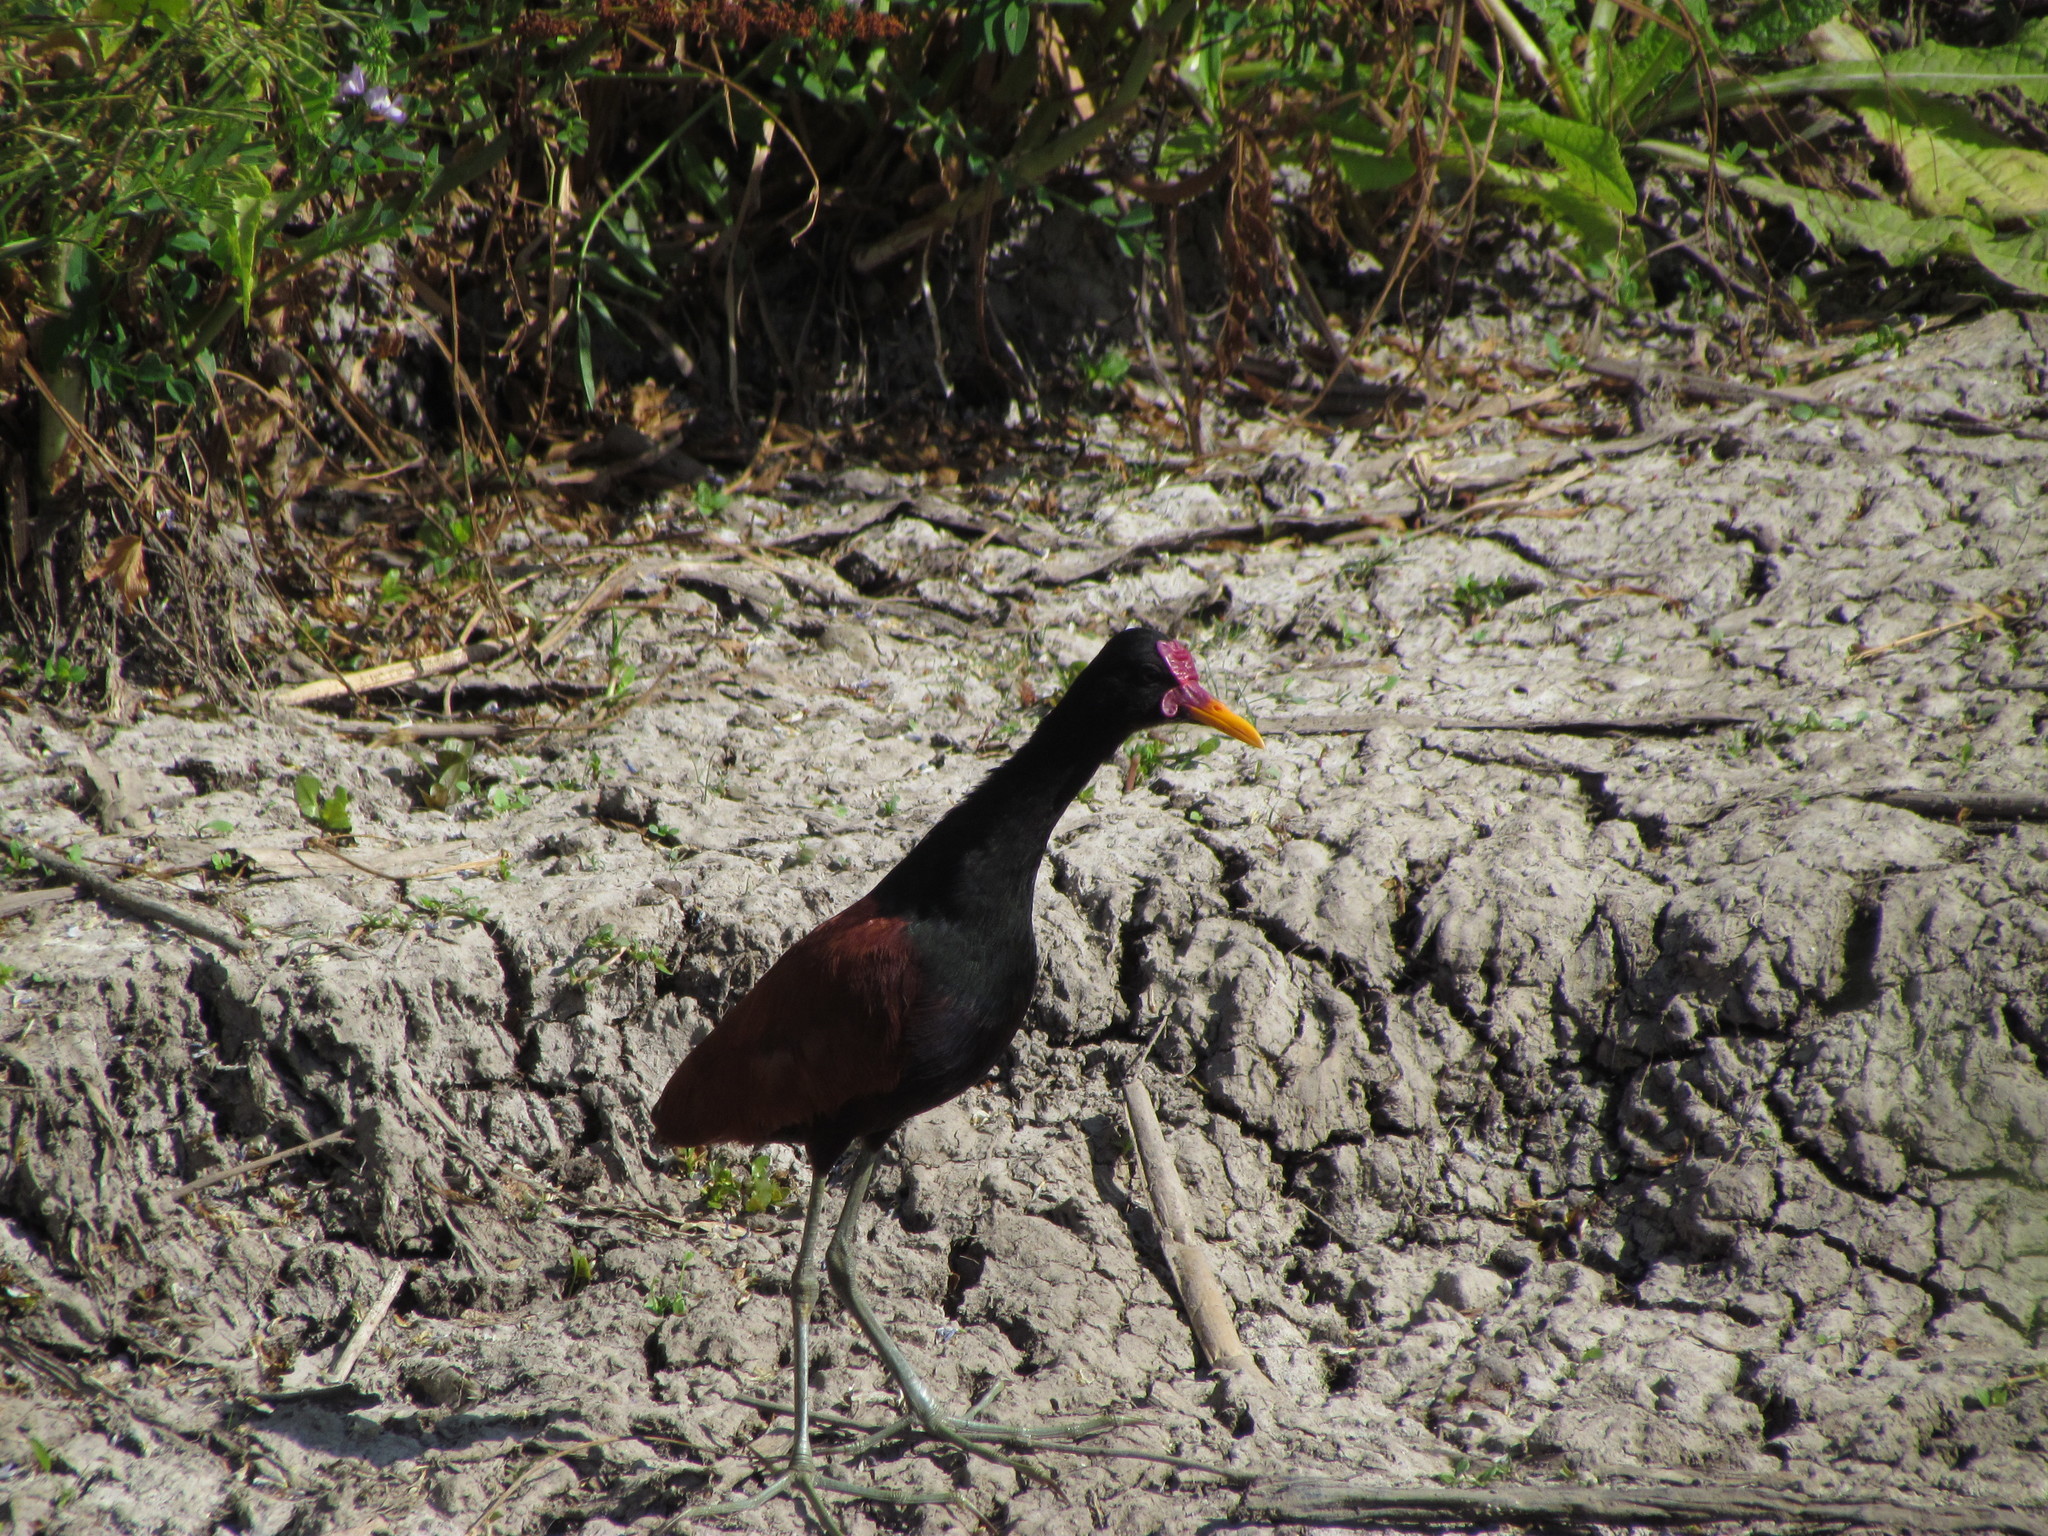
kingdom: Animalia
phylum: Chordata
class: Aves
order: Charadriiformes
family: Jacanidae
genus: Jacana
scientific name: Jacana jacana
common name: Wattled jacana
